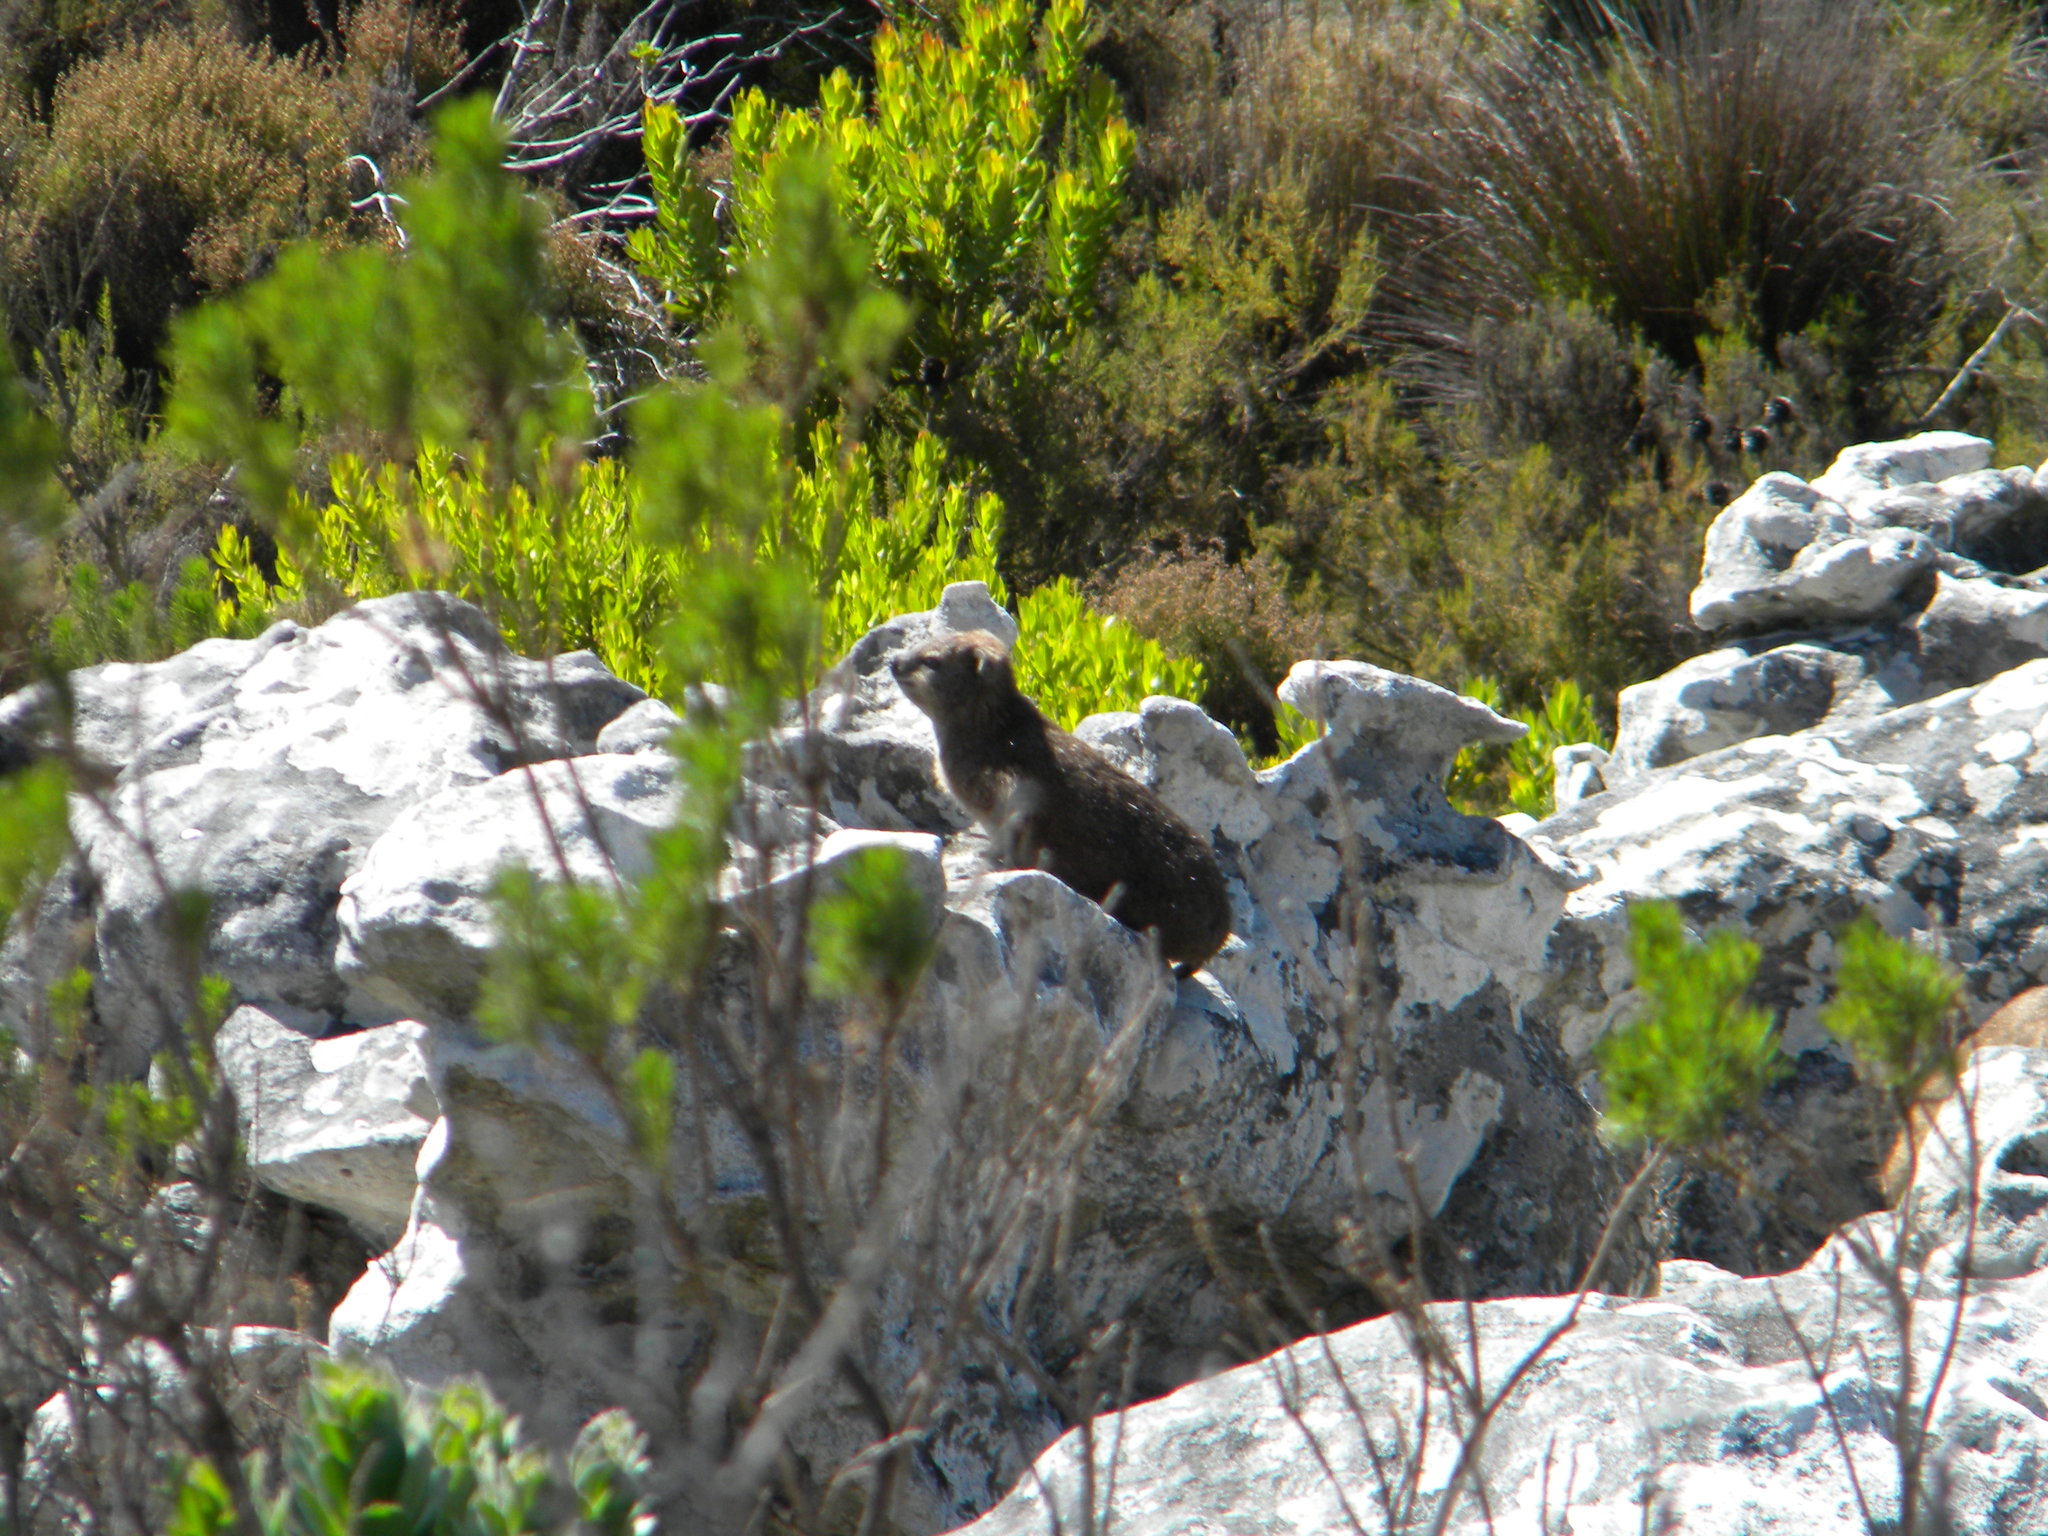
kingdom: Animalia
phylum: Chordata
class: Mammalia
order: Hyracoidea
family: Procaviidae
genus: Procavia
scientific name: Procavia capensis
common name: Rock hyrax
